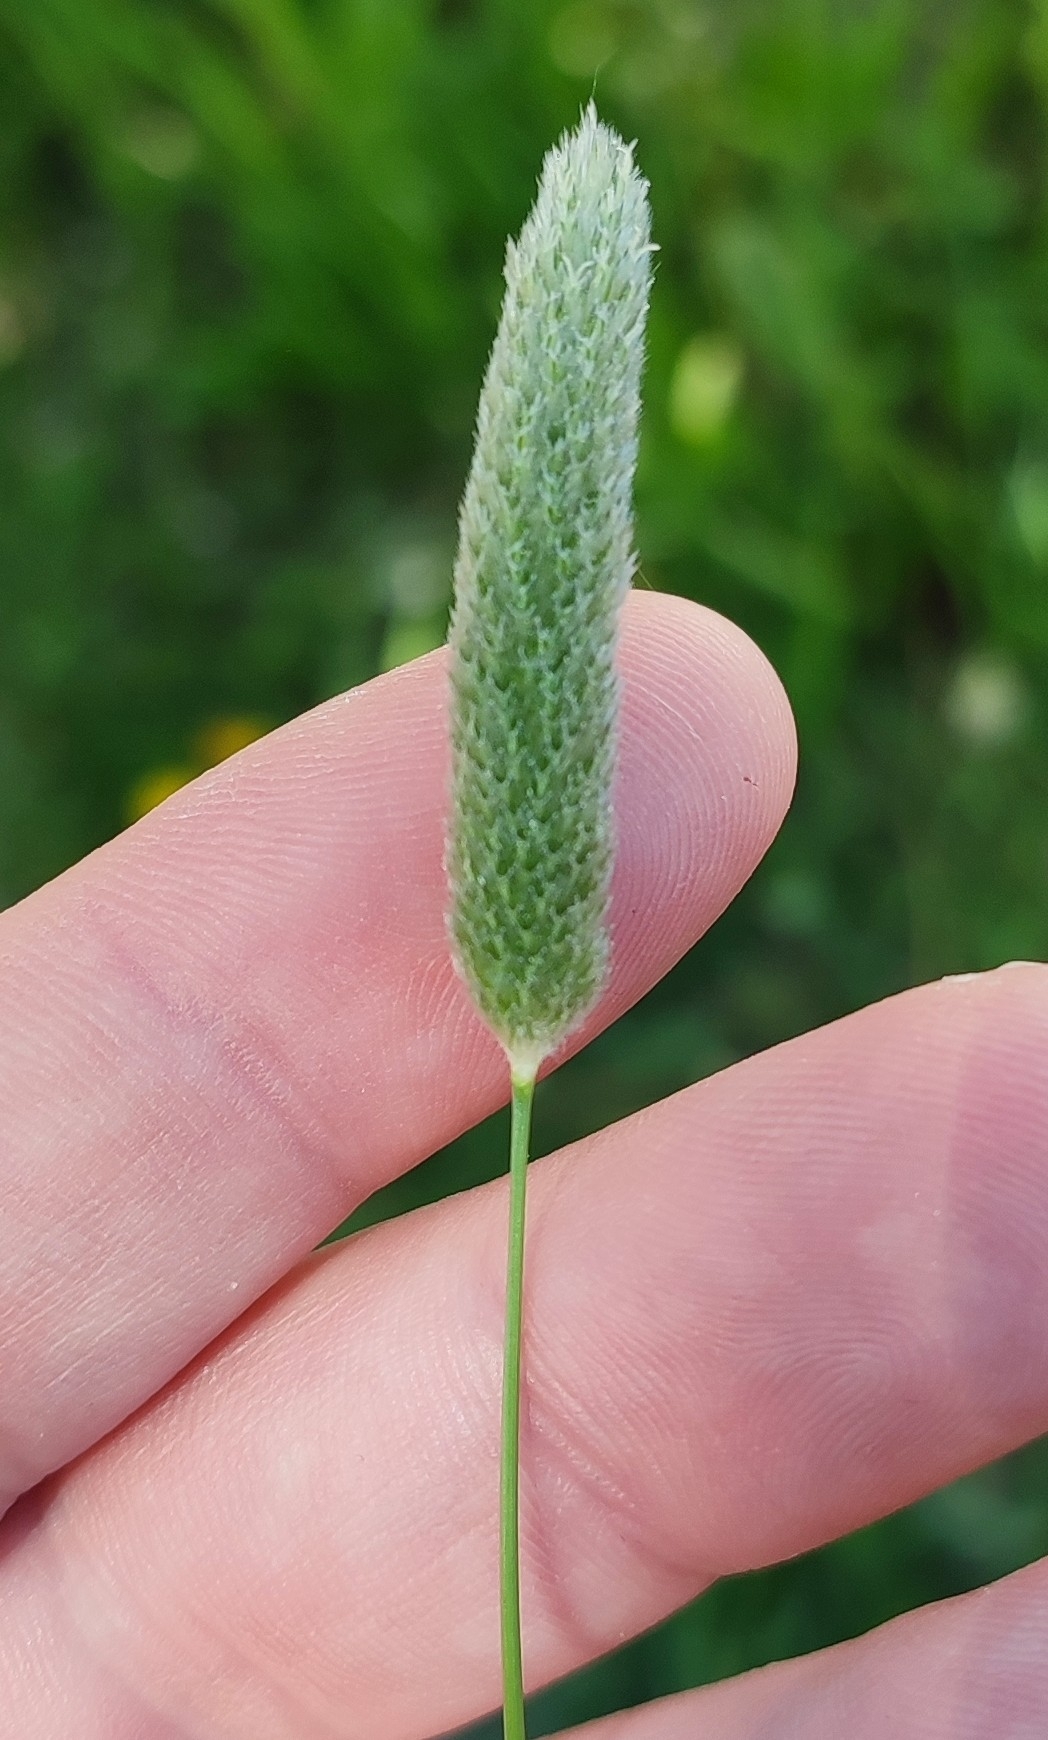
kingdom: Plantae
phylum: Tracheophyta
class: Liliopsida
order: Poales
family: Poaceae
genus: Alopecurus
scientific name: Alopecurus pratensis
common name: Meadow foxtail
